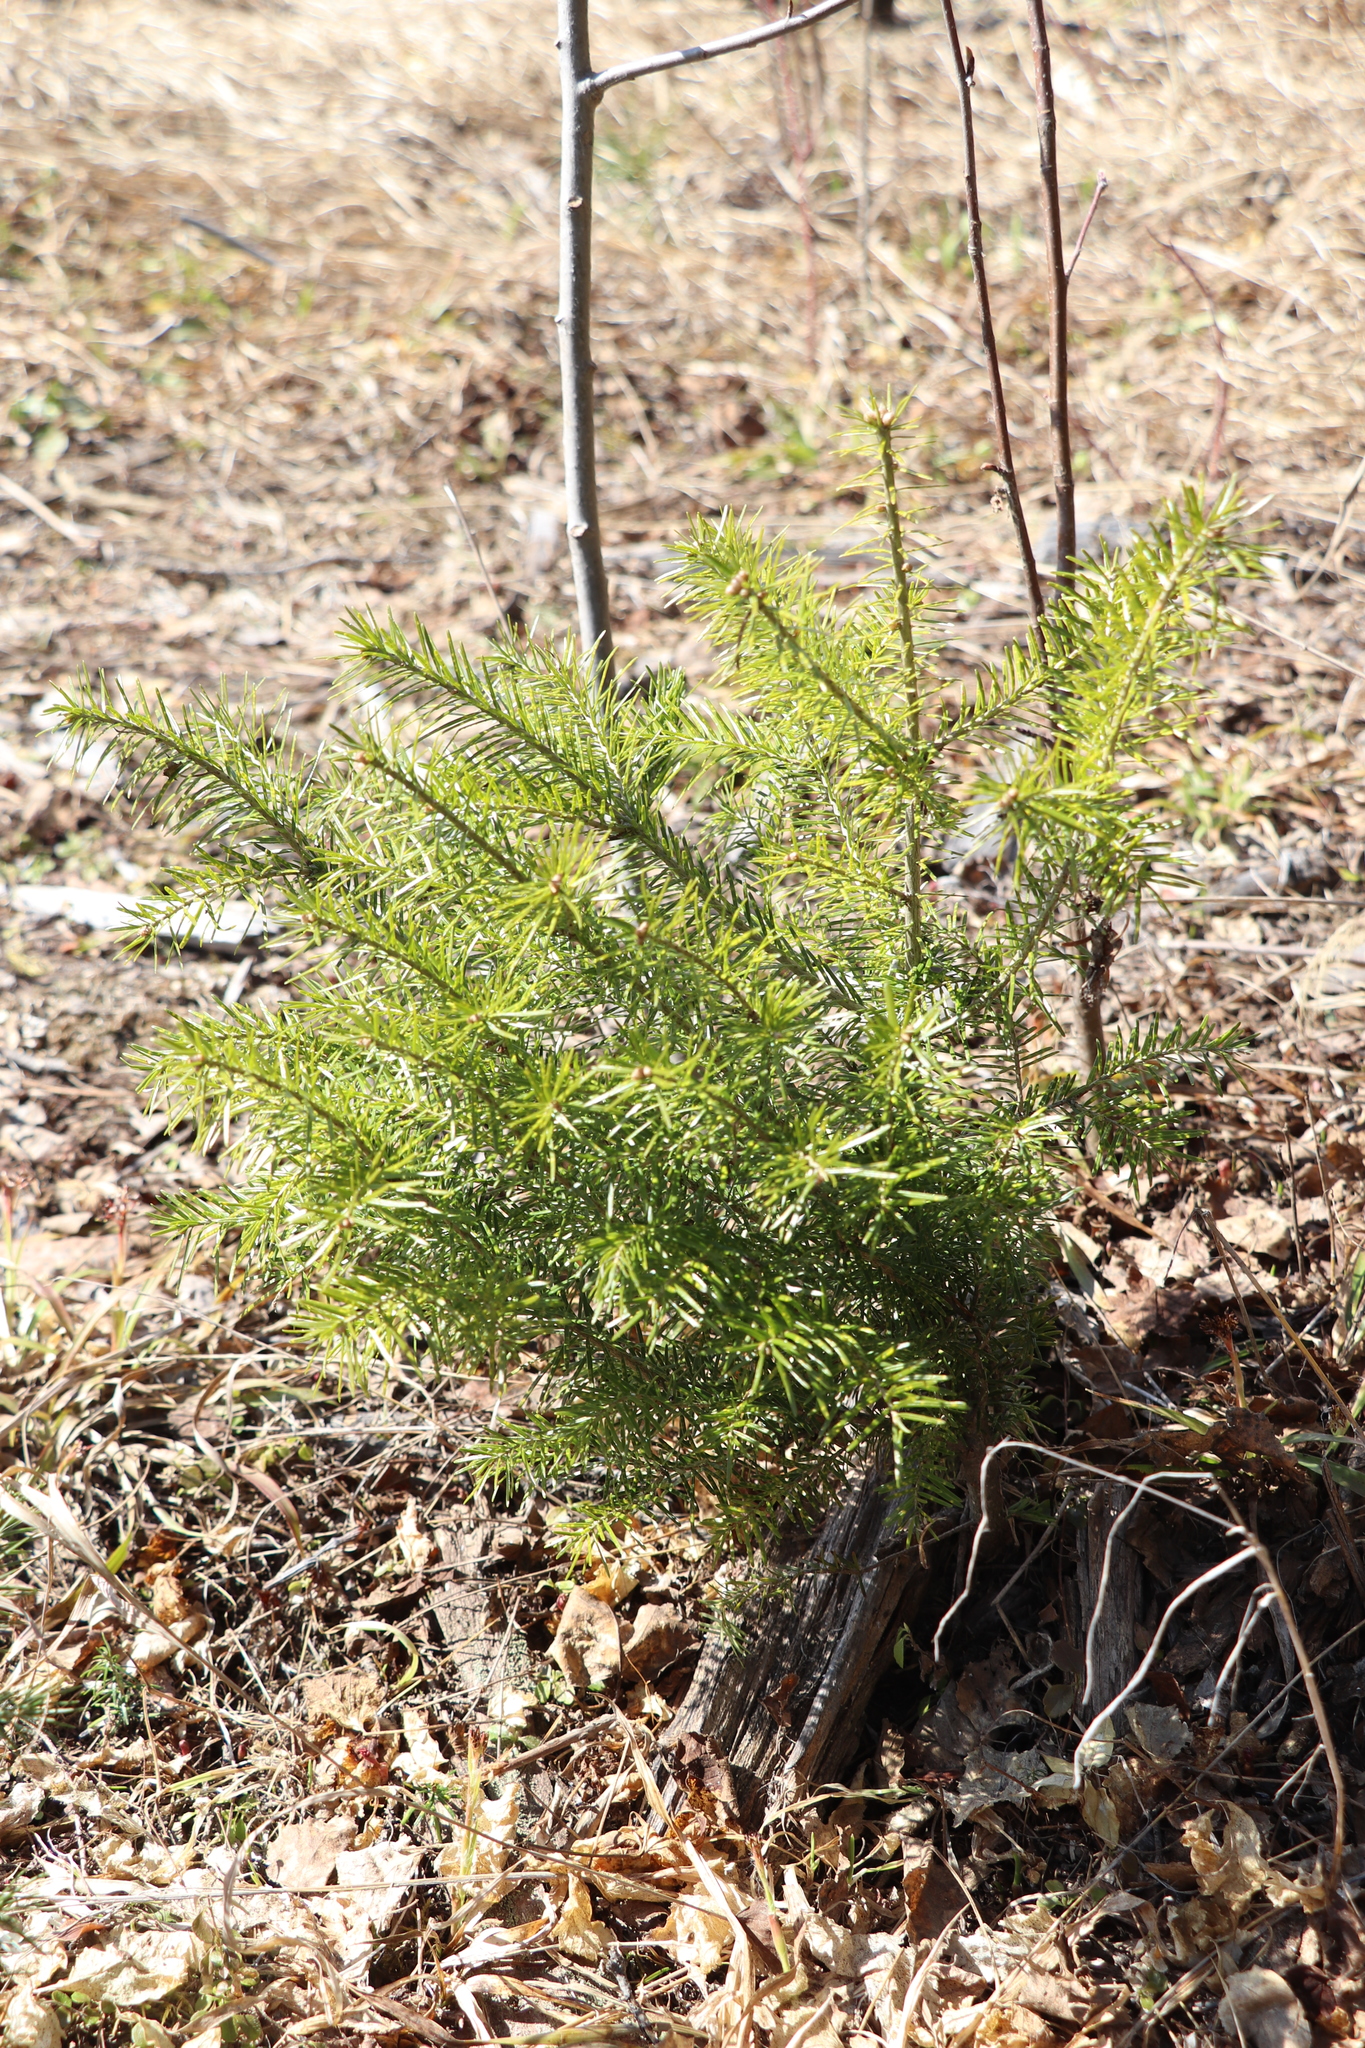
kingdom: Plantae
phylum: Tracheophyta
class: Pinopsida
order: Pinales
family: Pinaceae
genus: Abies
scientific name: Abies sibirica
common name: Siberian fir
